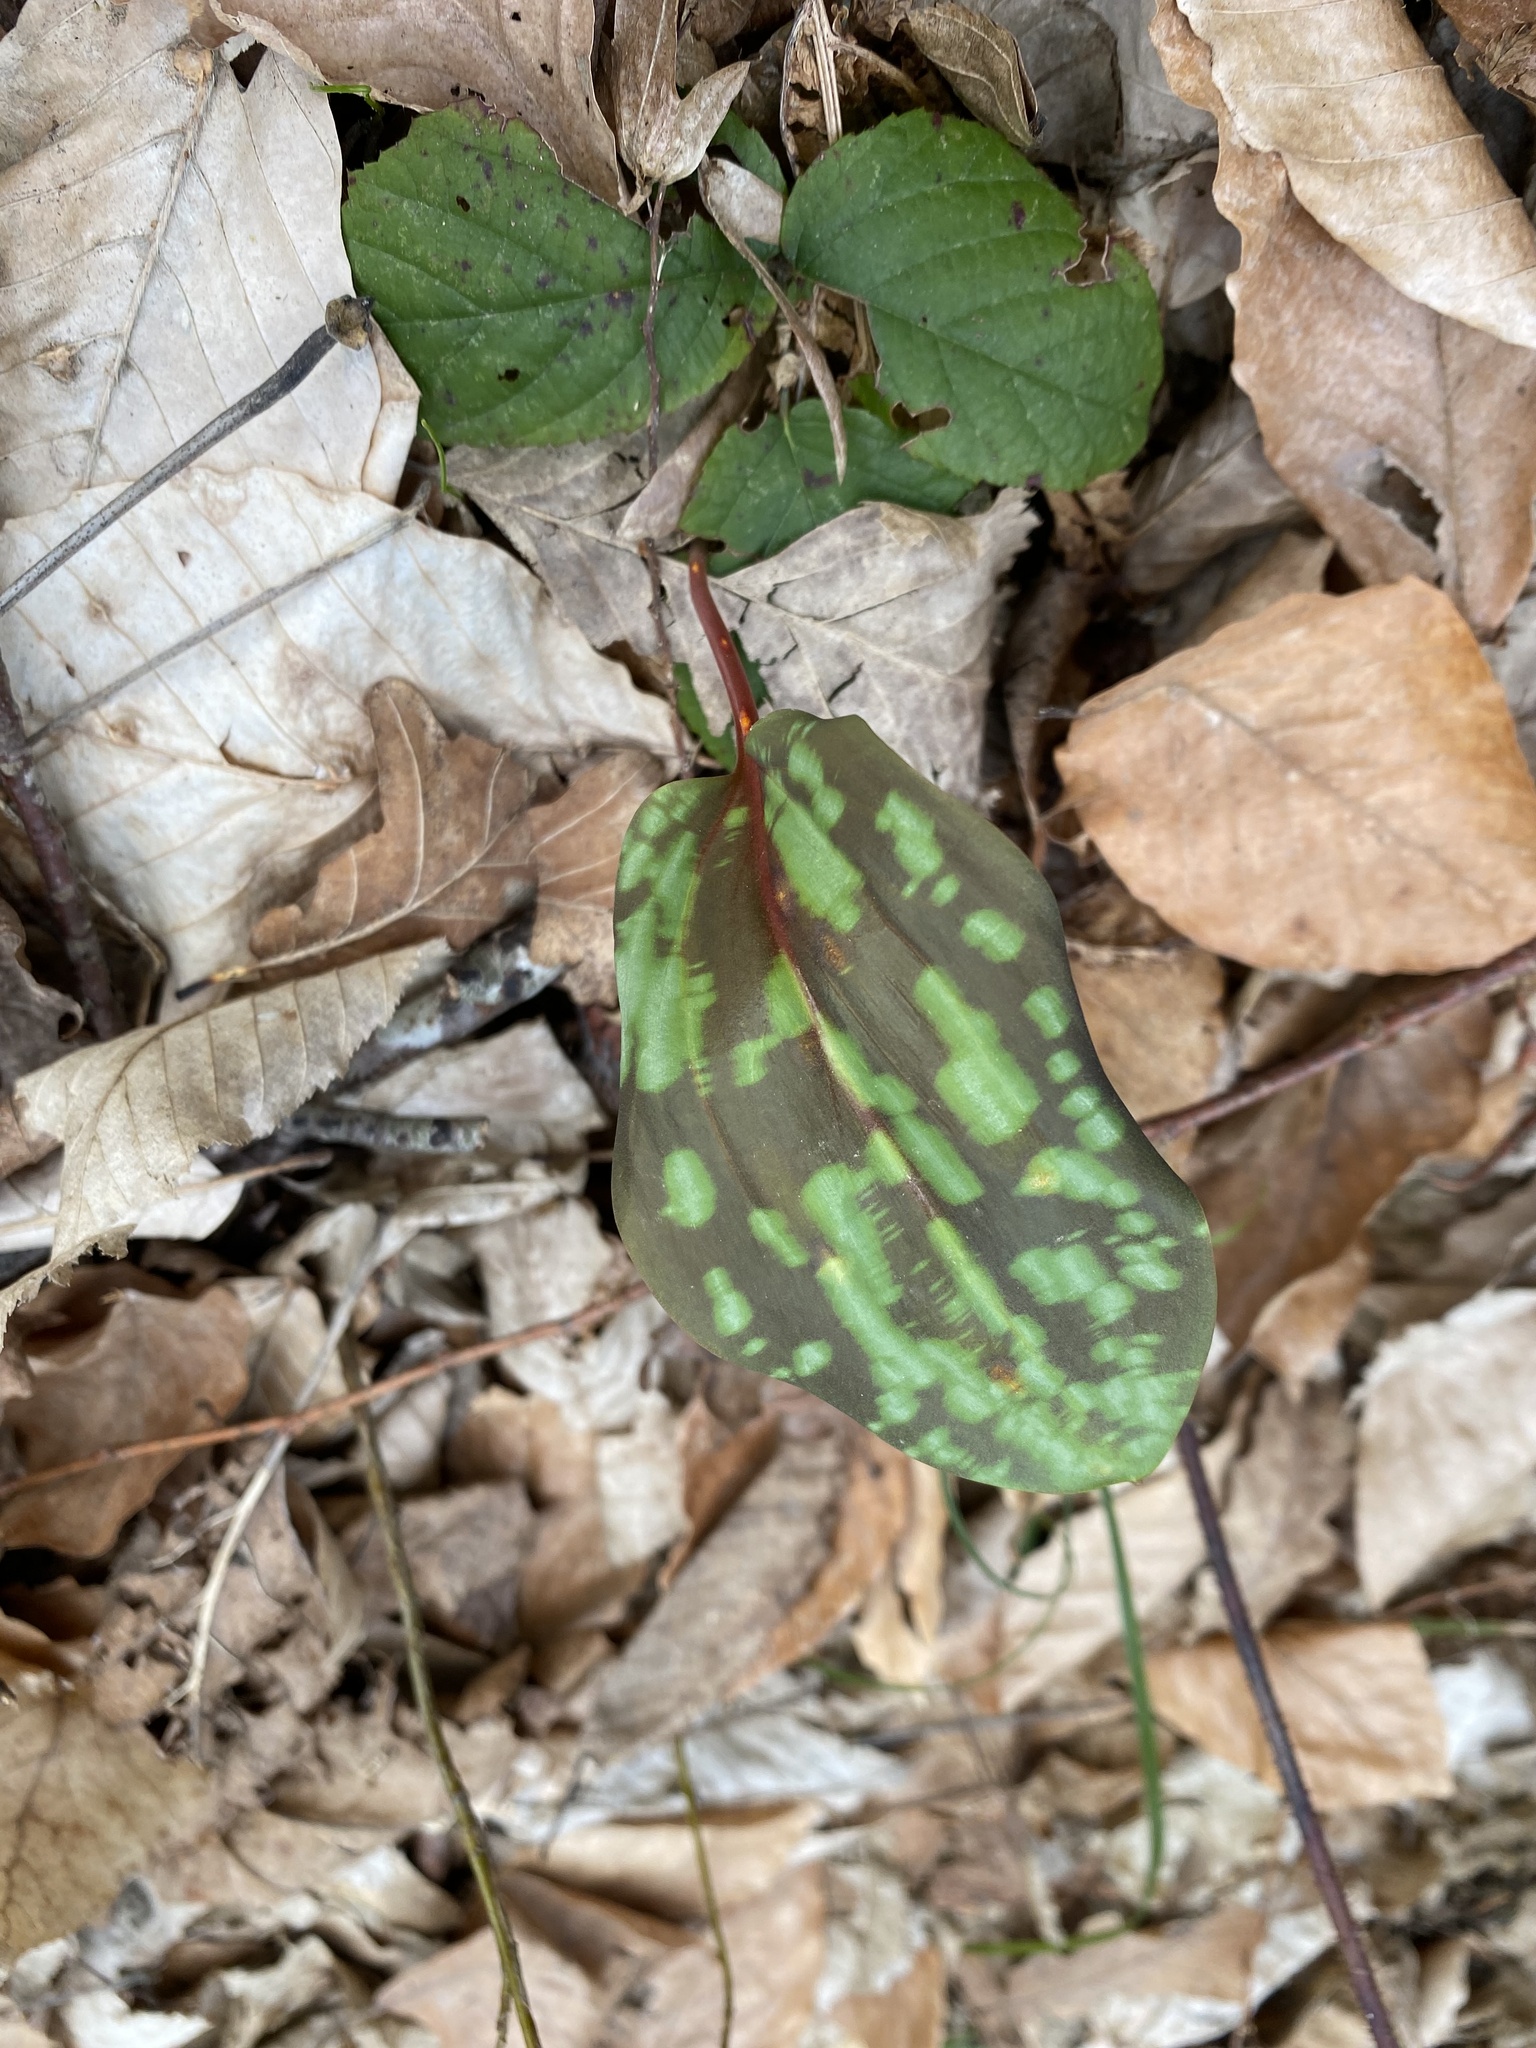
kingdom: Plantae
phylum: Tracheophyta
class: Liliopsida
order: Liliales
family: Liliaceae
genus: Erythronium
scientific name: Erythronium caucasicum
